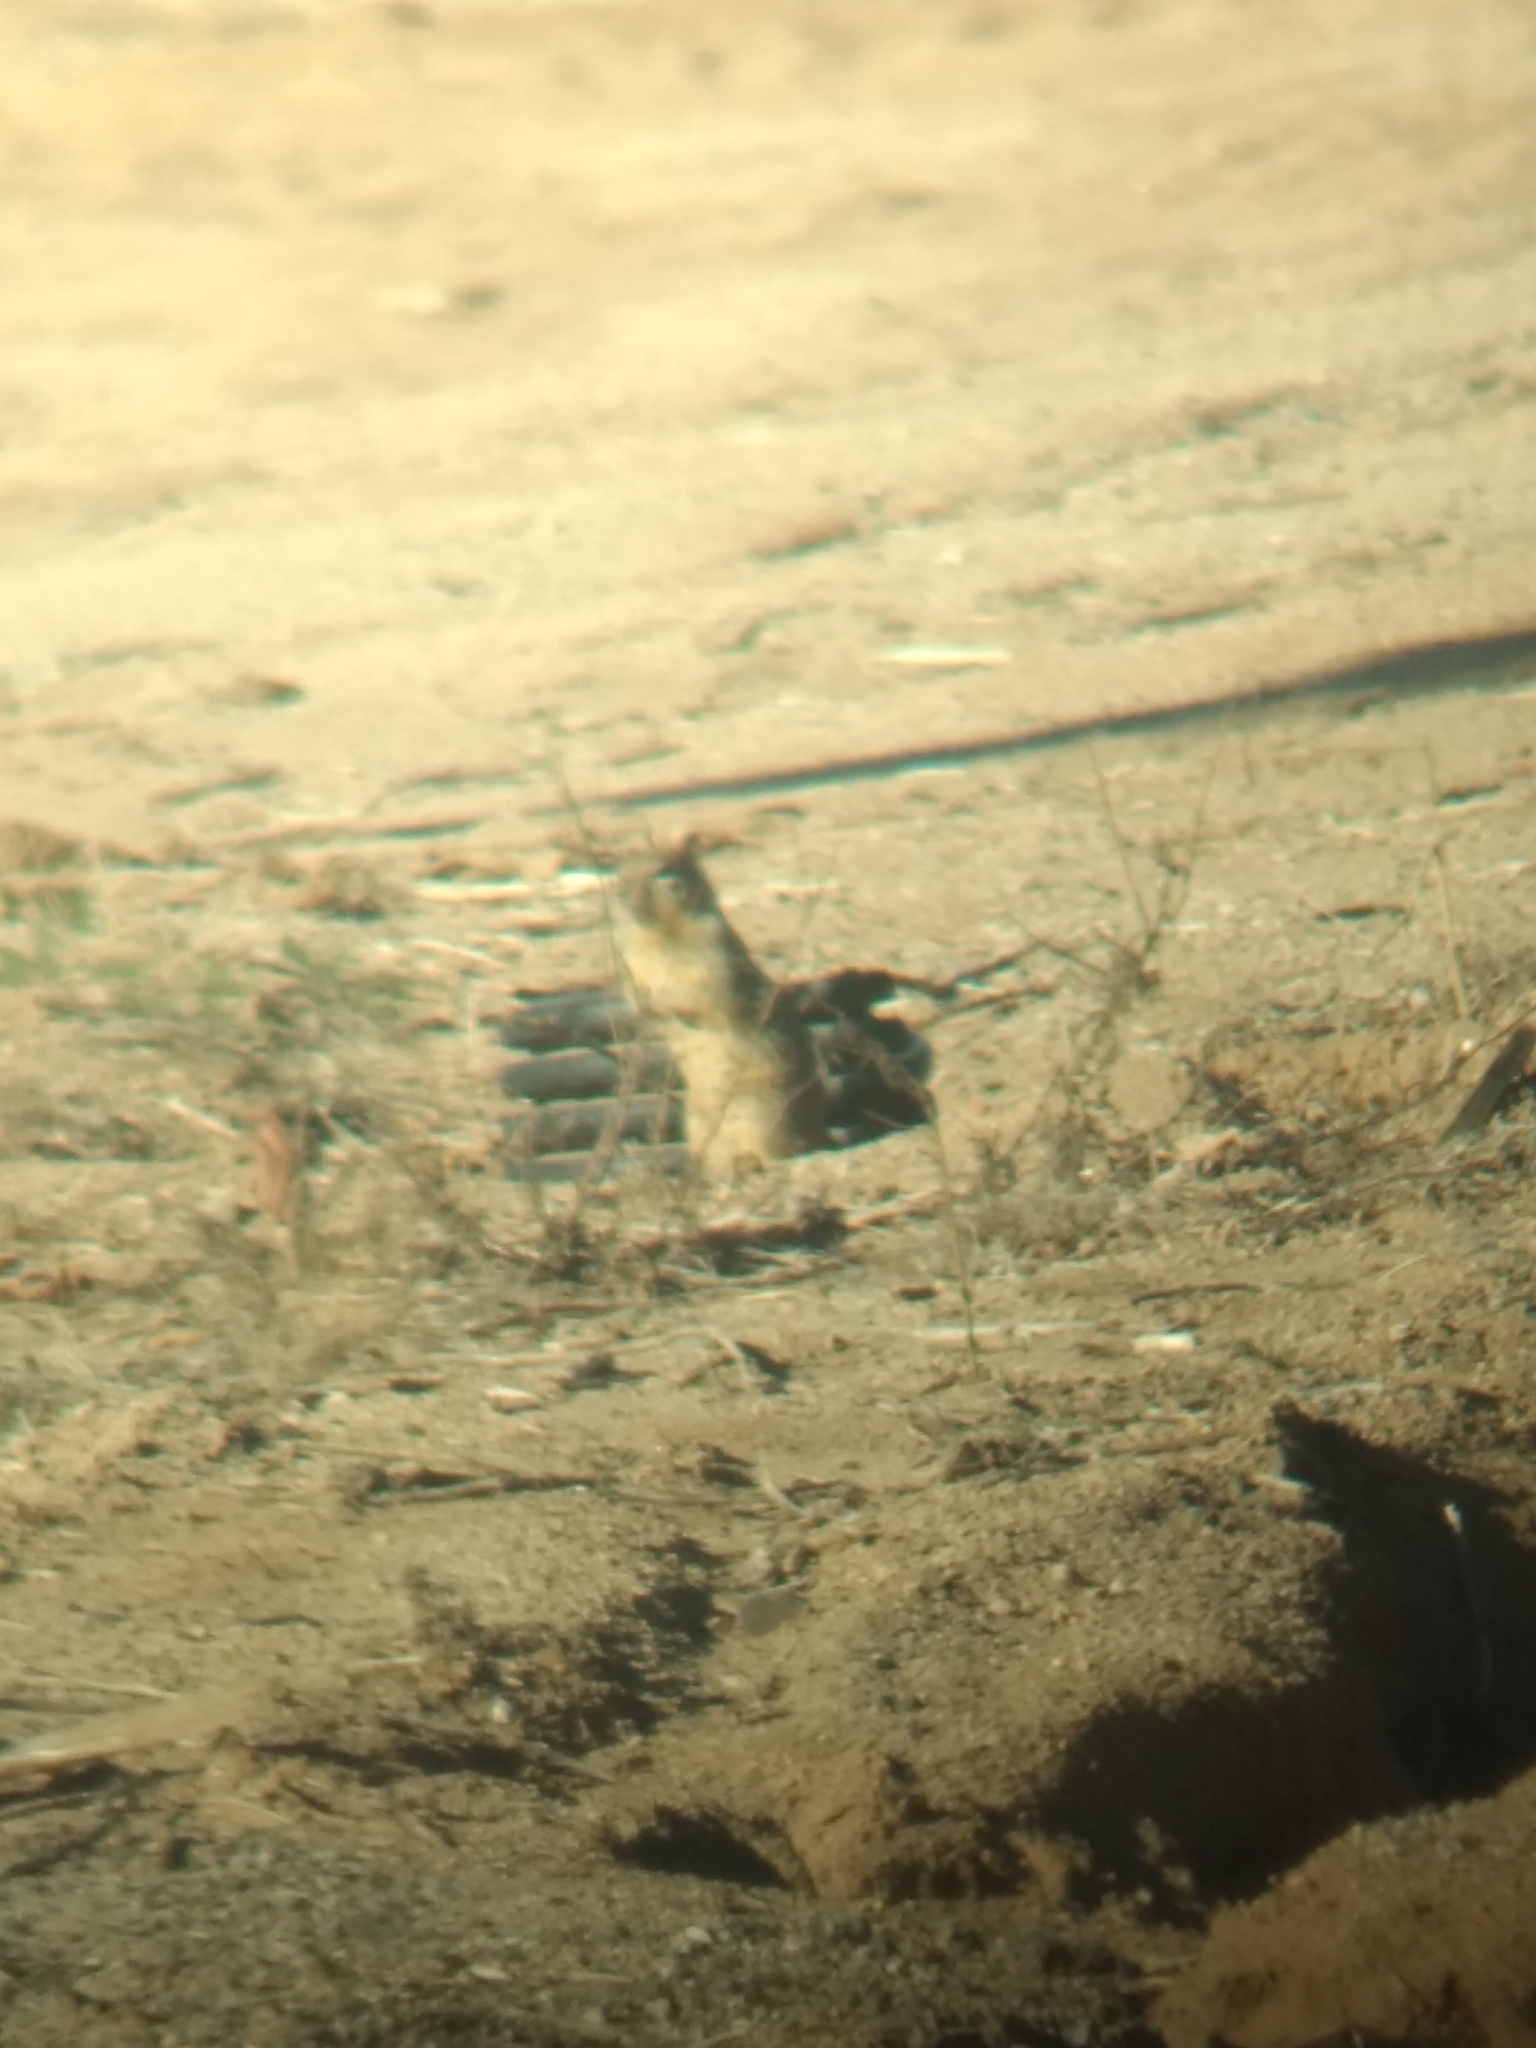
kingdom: Animalia
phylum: Chordata
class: Mammalia
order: Rodentia
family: Sciuridae
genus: Otospermophilus
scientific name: Otospermophilus beecheyi
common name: California ground squirrel
